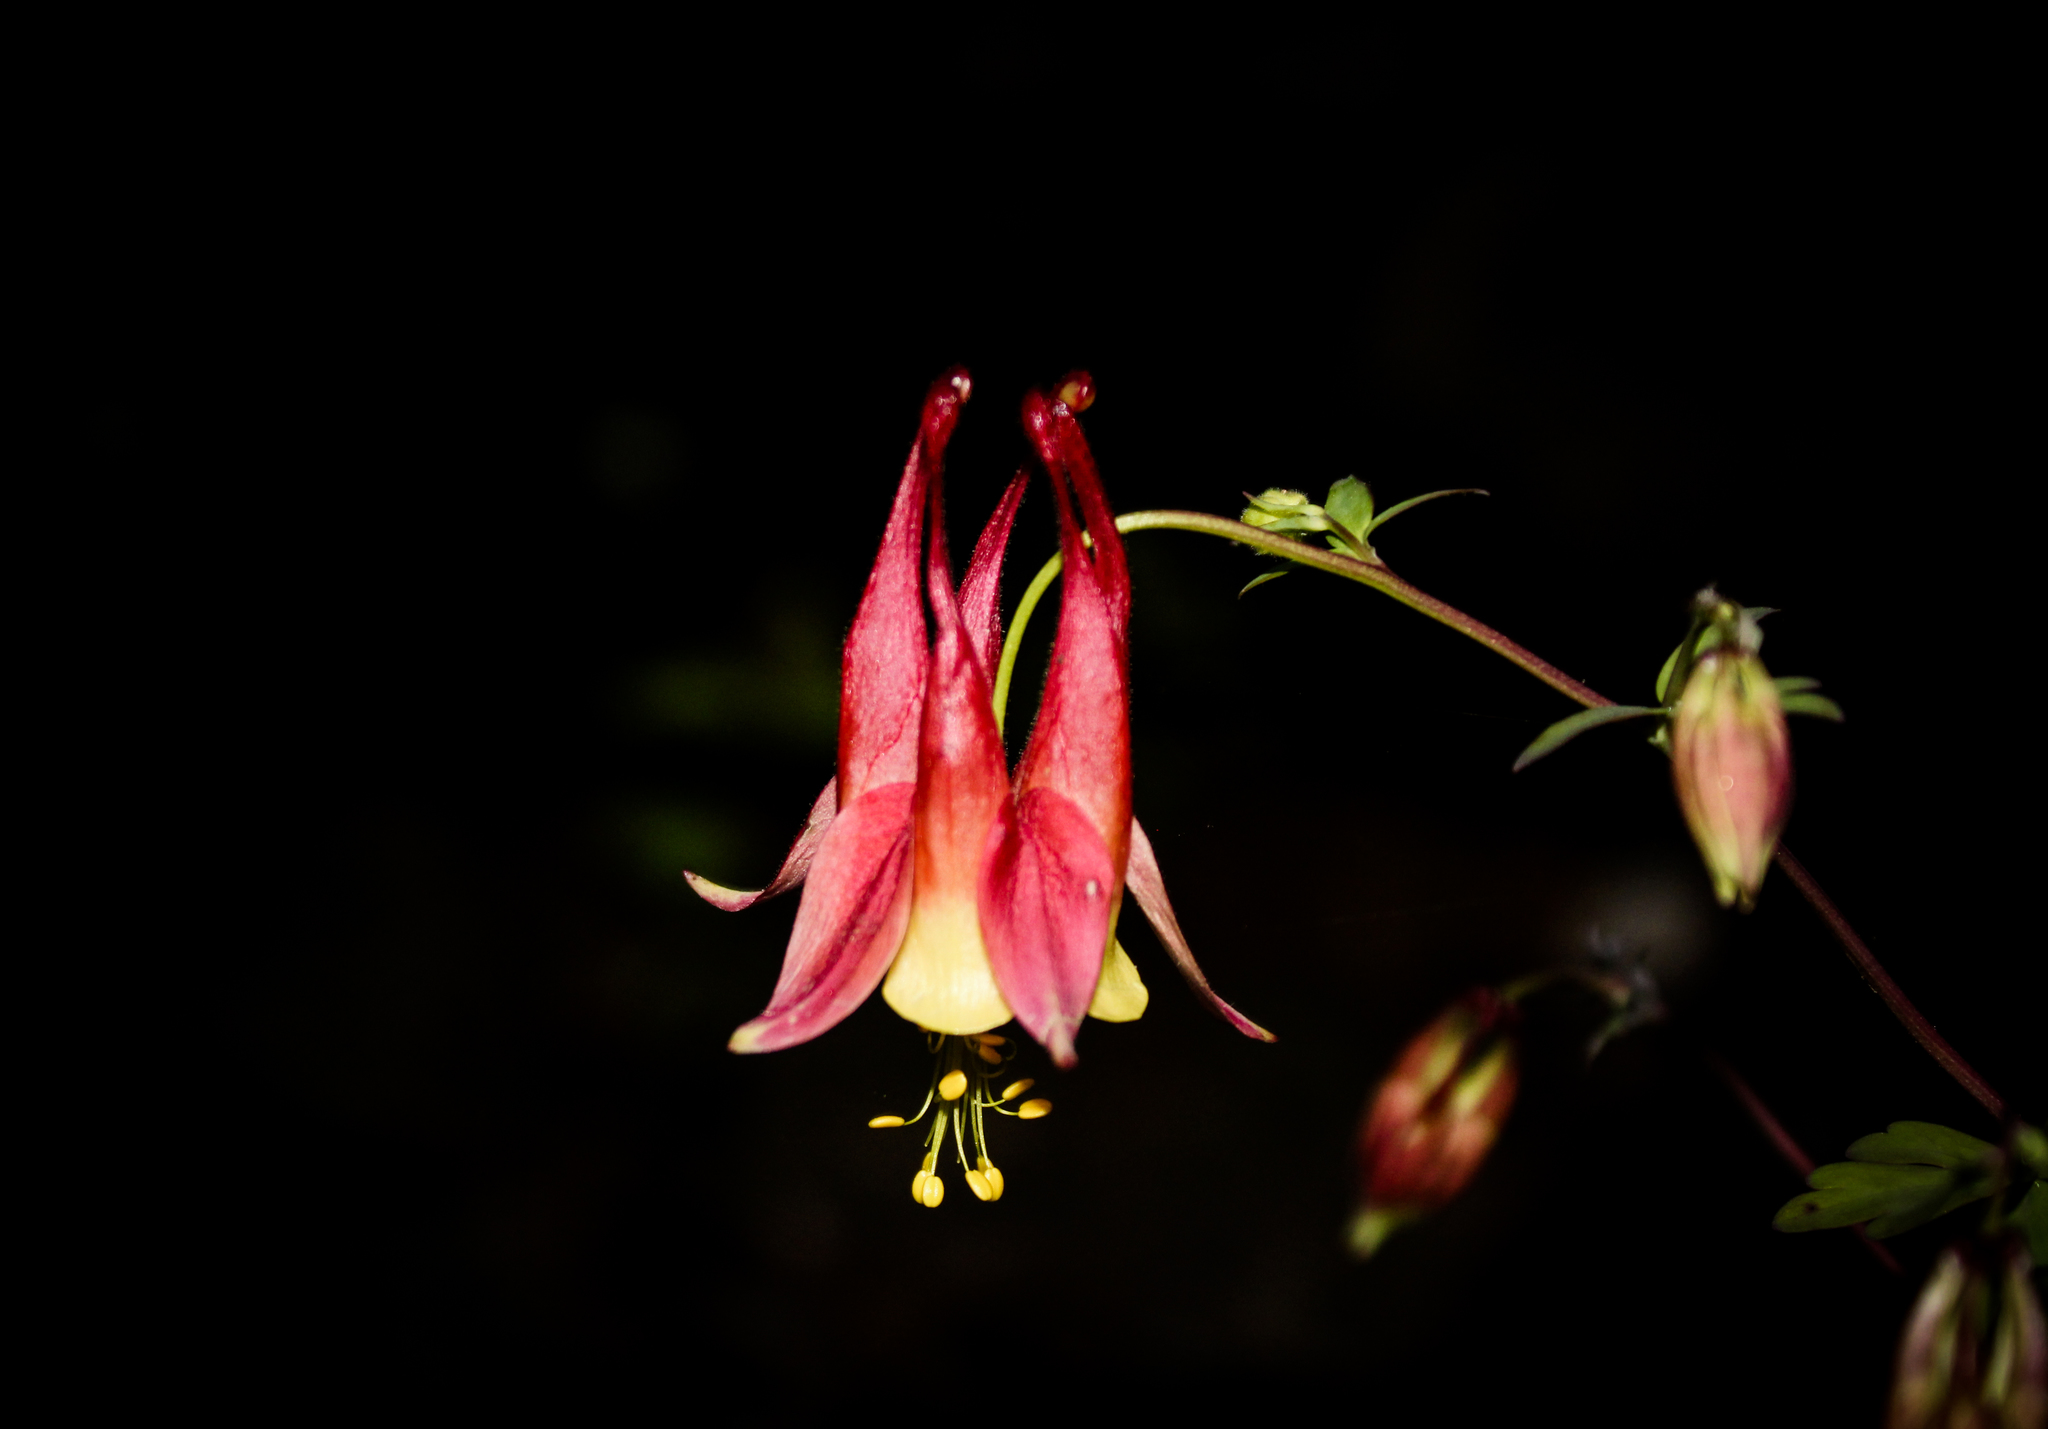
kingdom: Plantae
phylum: Tracheophyta
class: Magnoliopsida
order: Ranunculales
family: Ranunculaceae
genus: Aquilegia
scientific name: Aquilegia canadensis
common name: American columbine
